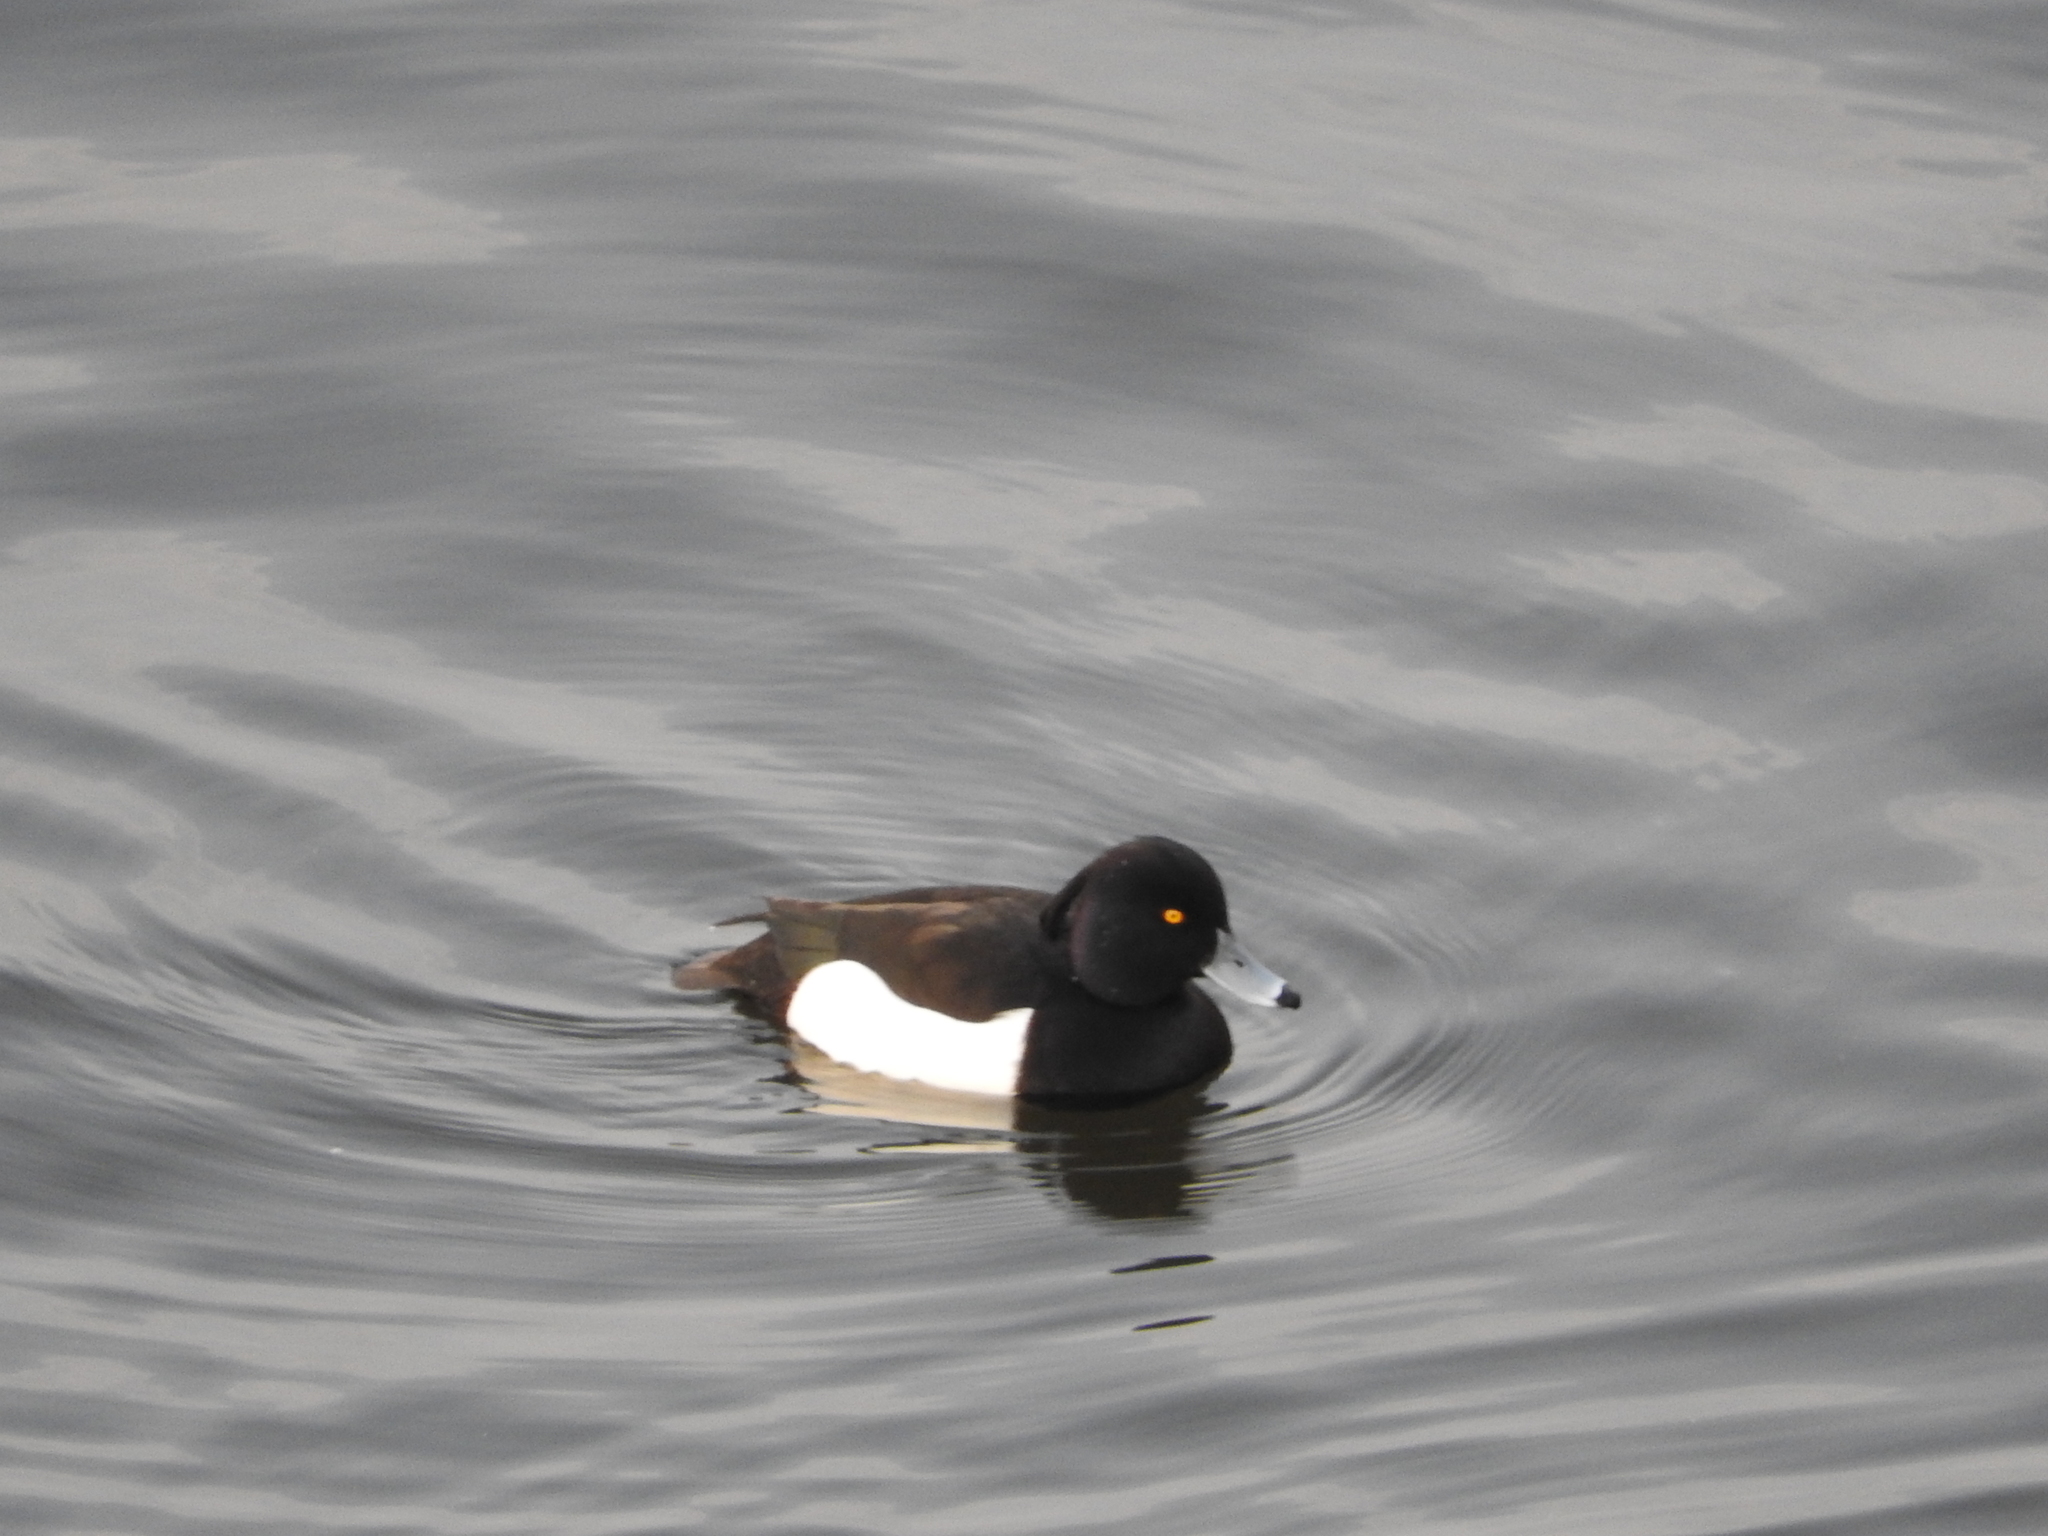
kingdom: Animalia
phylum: Chordata
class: Aves
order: Anseriformes
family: Anatidae
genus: Aythya
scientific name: Aythya fuligula
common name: Tufted duck
